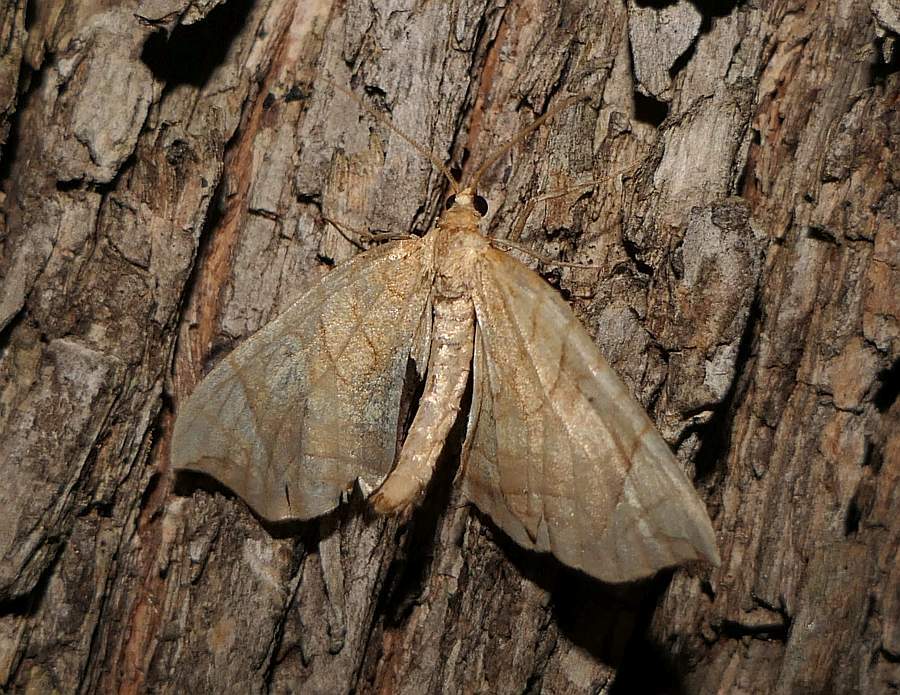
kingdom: Animalia
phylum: Arthropoda
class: Insecta
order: Lepidoptera
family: Geometridae
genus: Eulithis
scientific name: Eulithis
